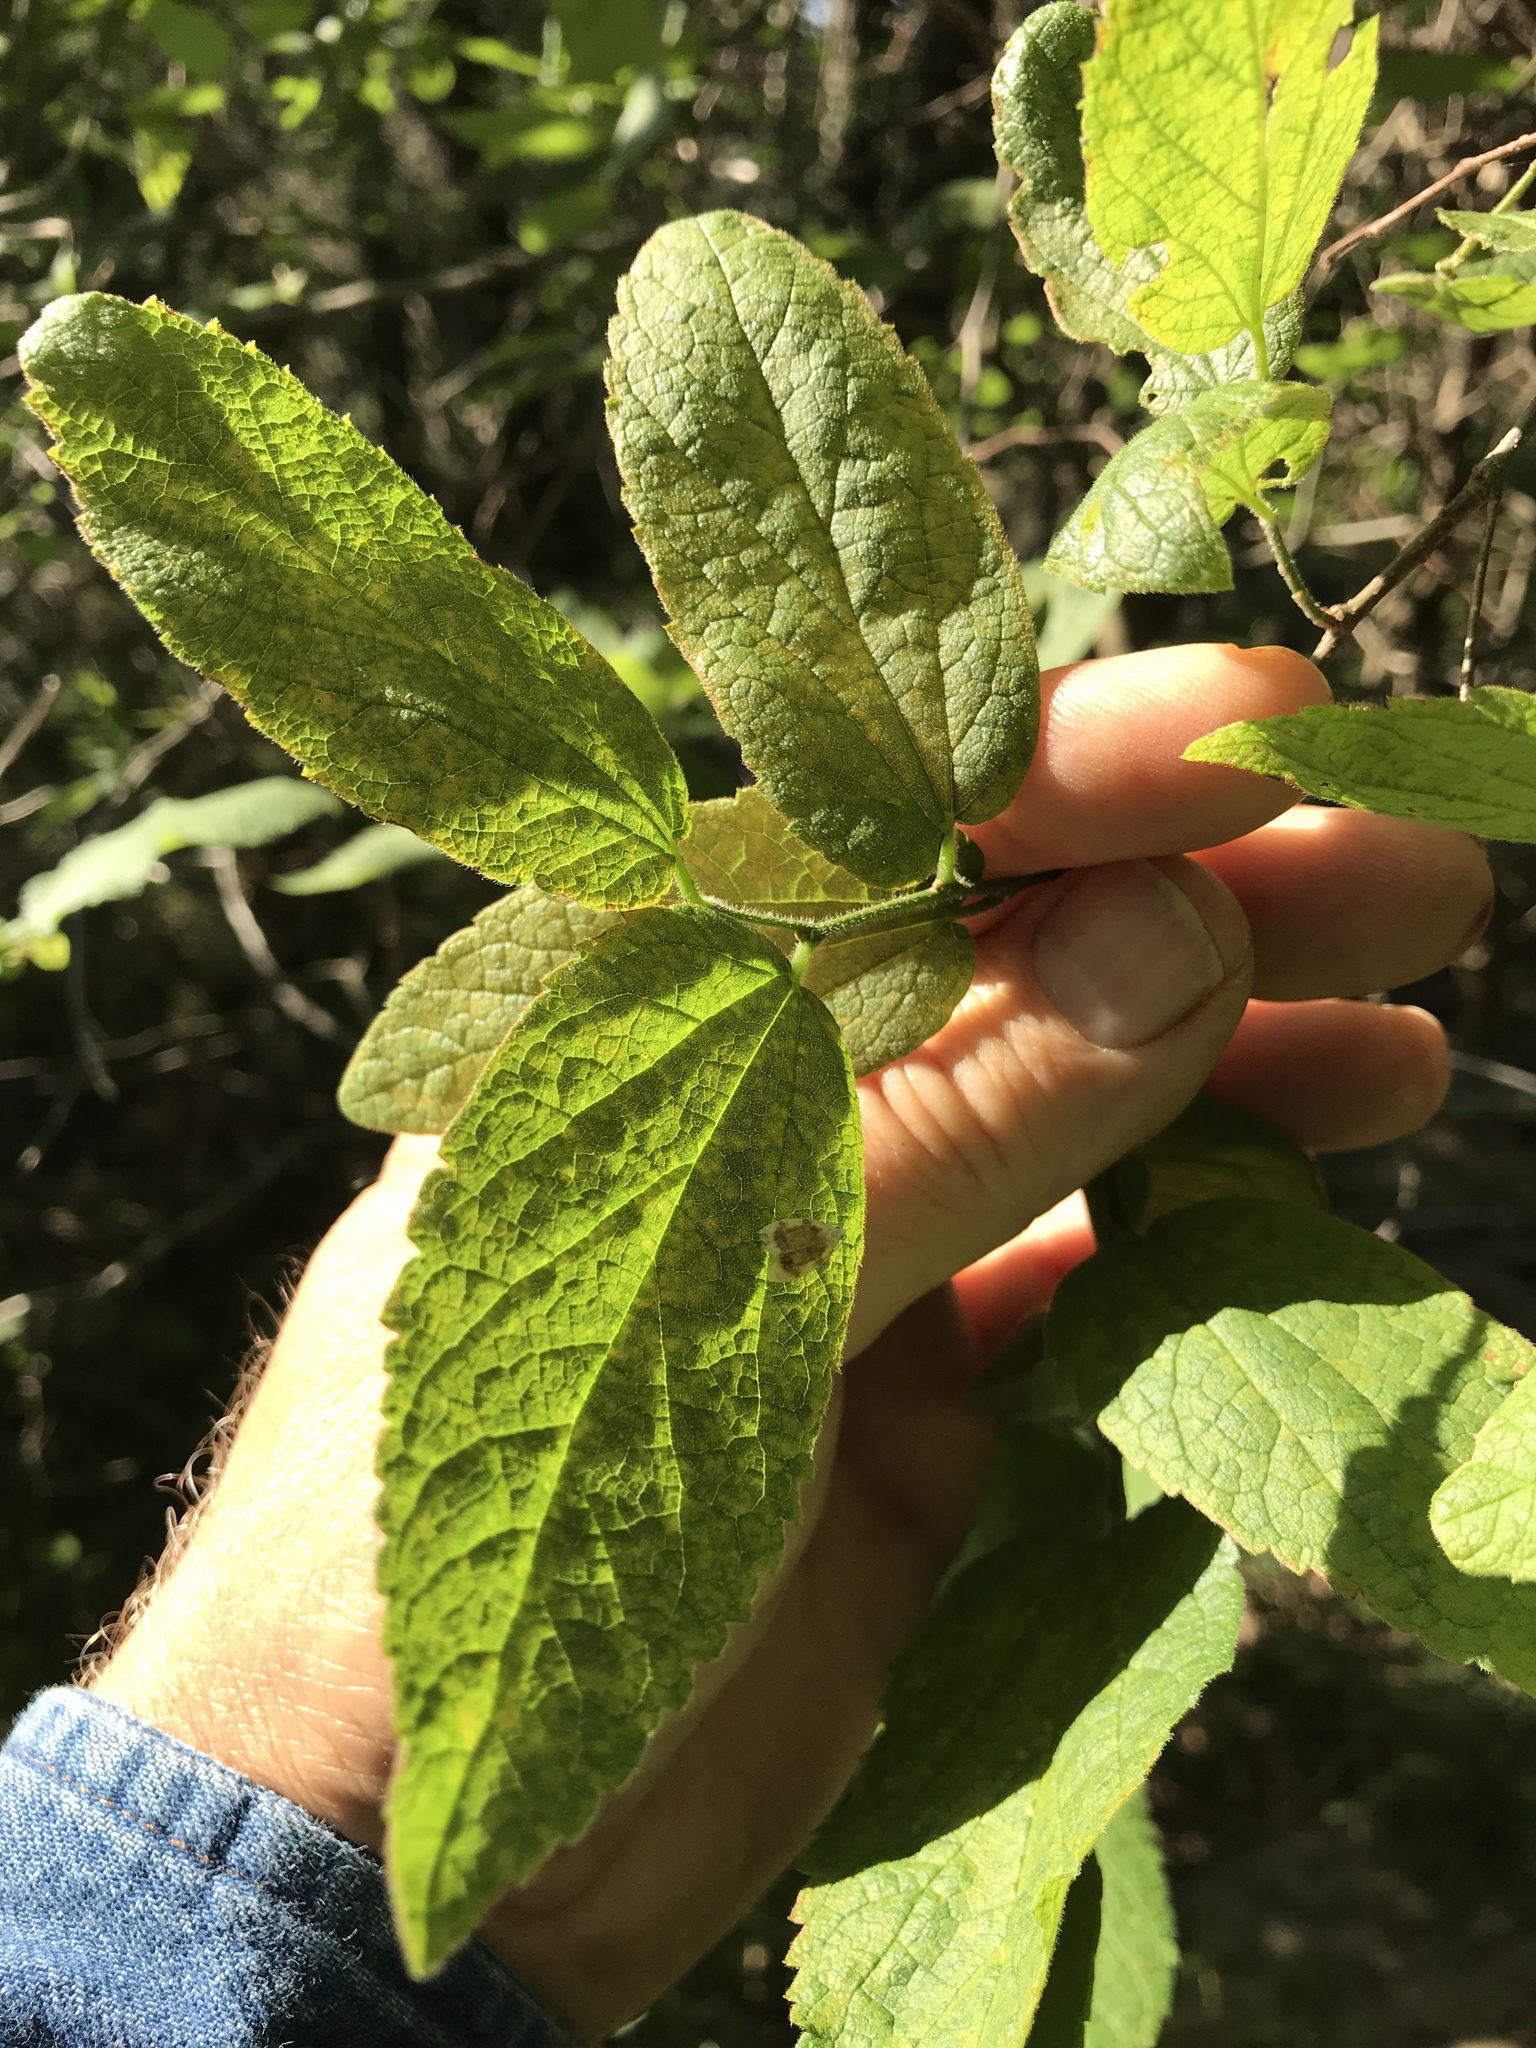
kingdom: Plantae
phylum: Tracheophyta
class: Magnoliopsida
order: Rosales
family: Cannabaceae
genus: Celtis
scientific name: Celtis reticulata
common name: Netleaf hackberry
